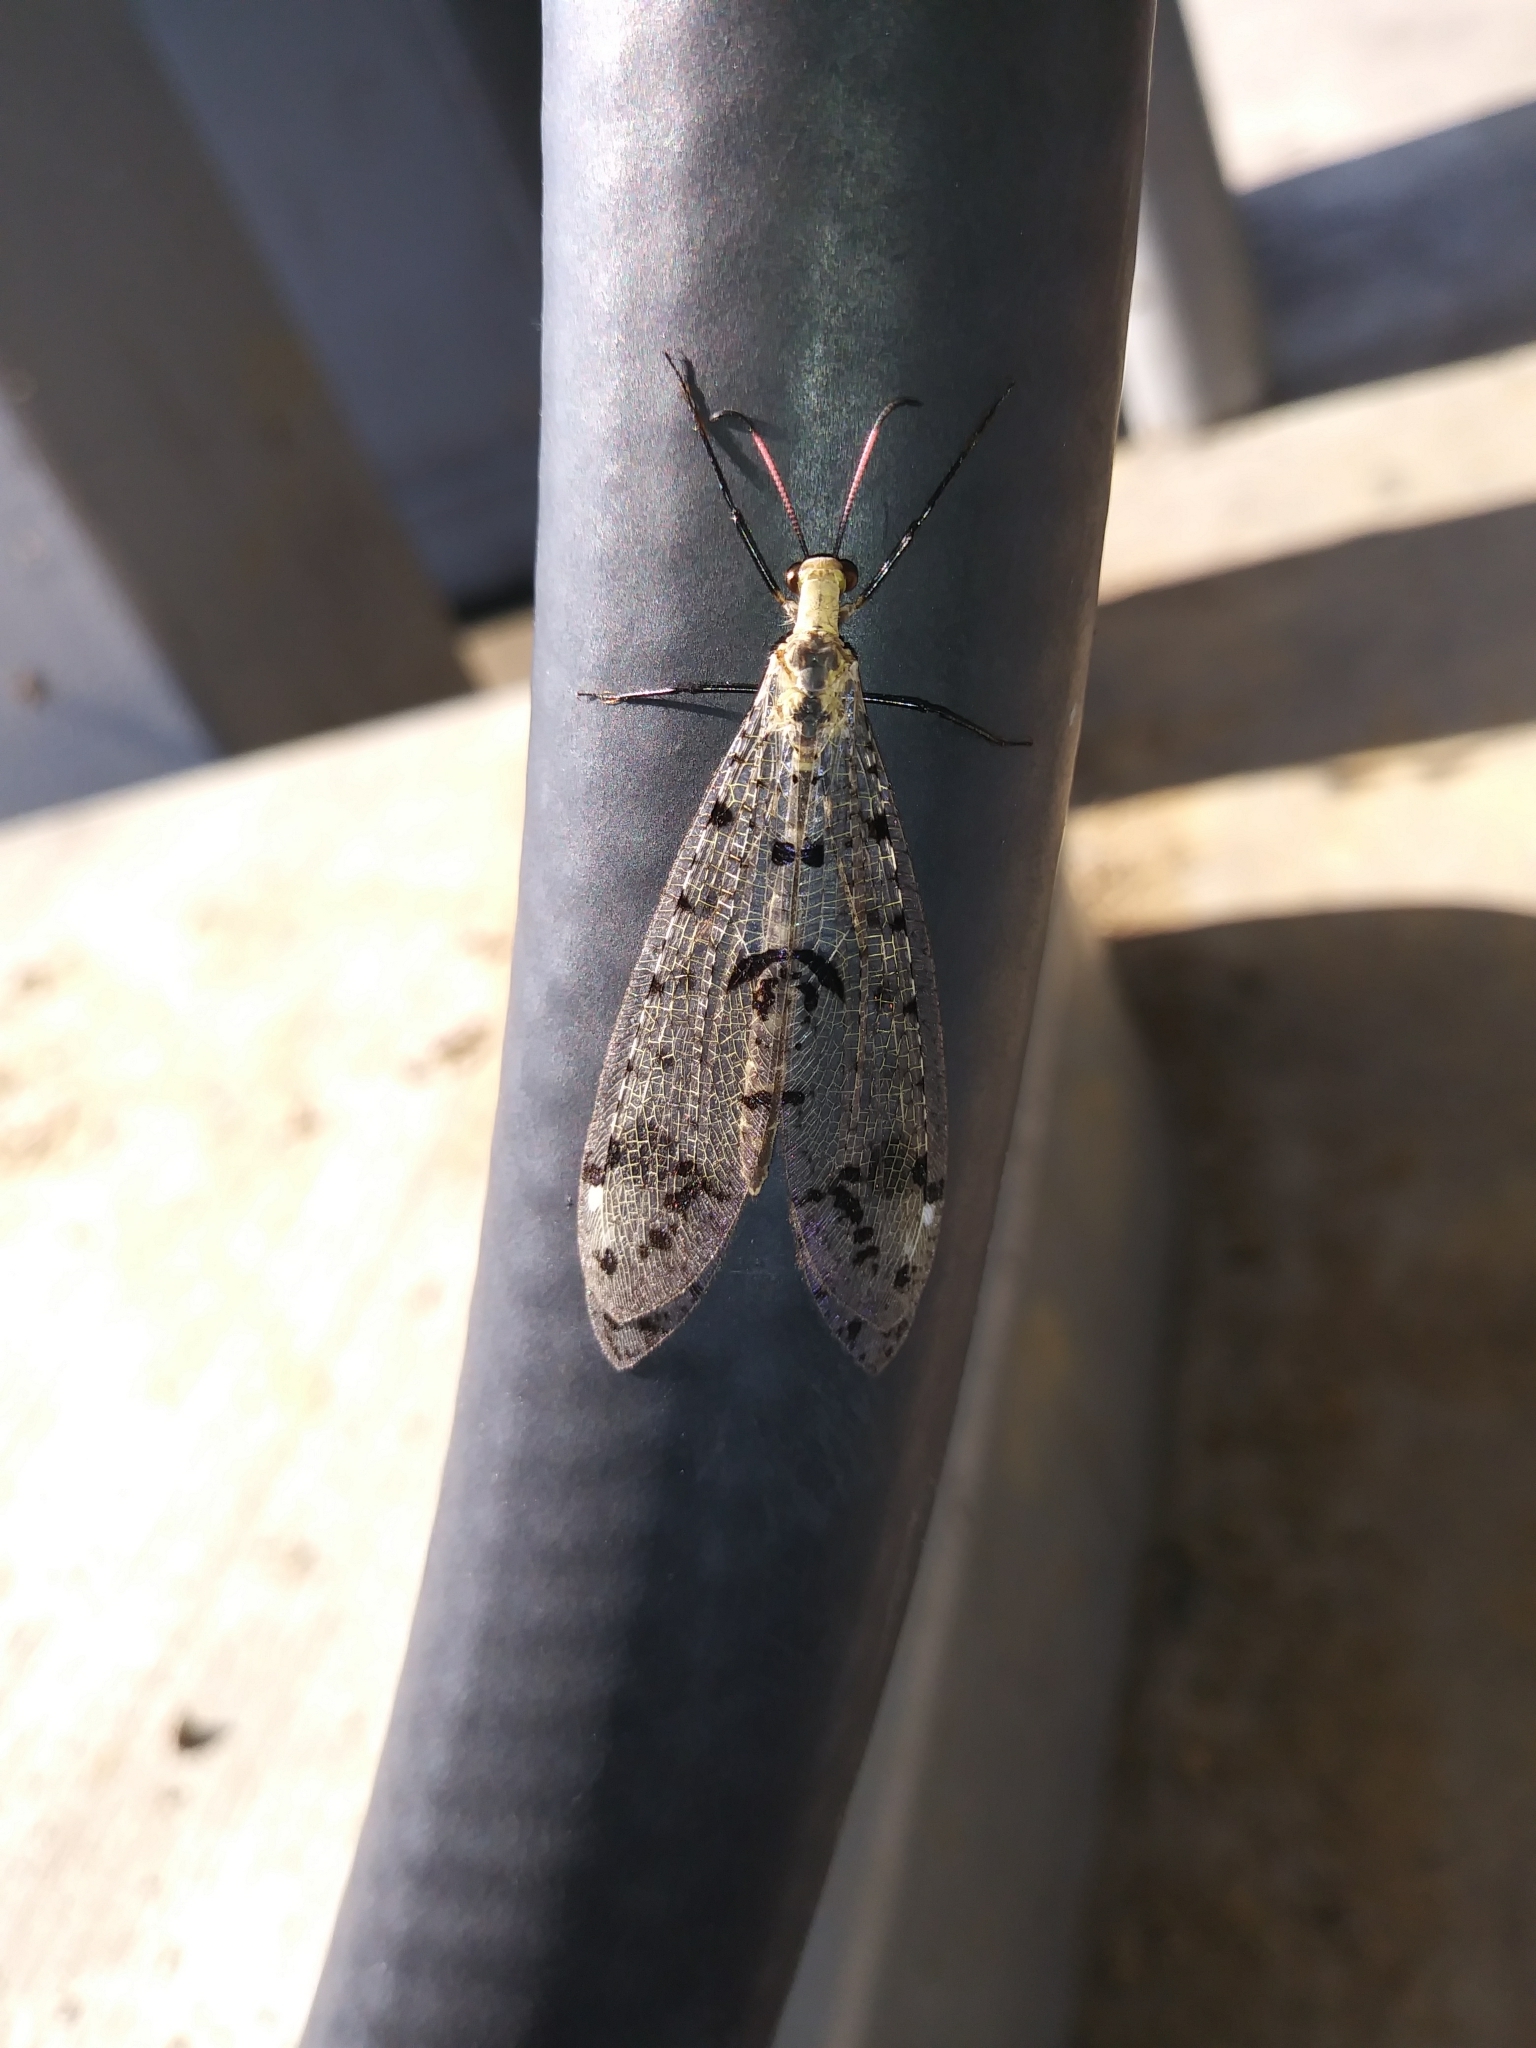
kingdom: Animalia
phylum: Arthropoda
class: Insecta
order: Neuroptera
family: Myrmeleontidae
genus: Dendroleon
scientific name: Dendroleon obsoletus
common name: Eastern spotted-winged antlion
